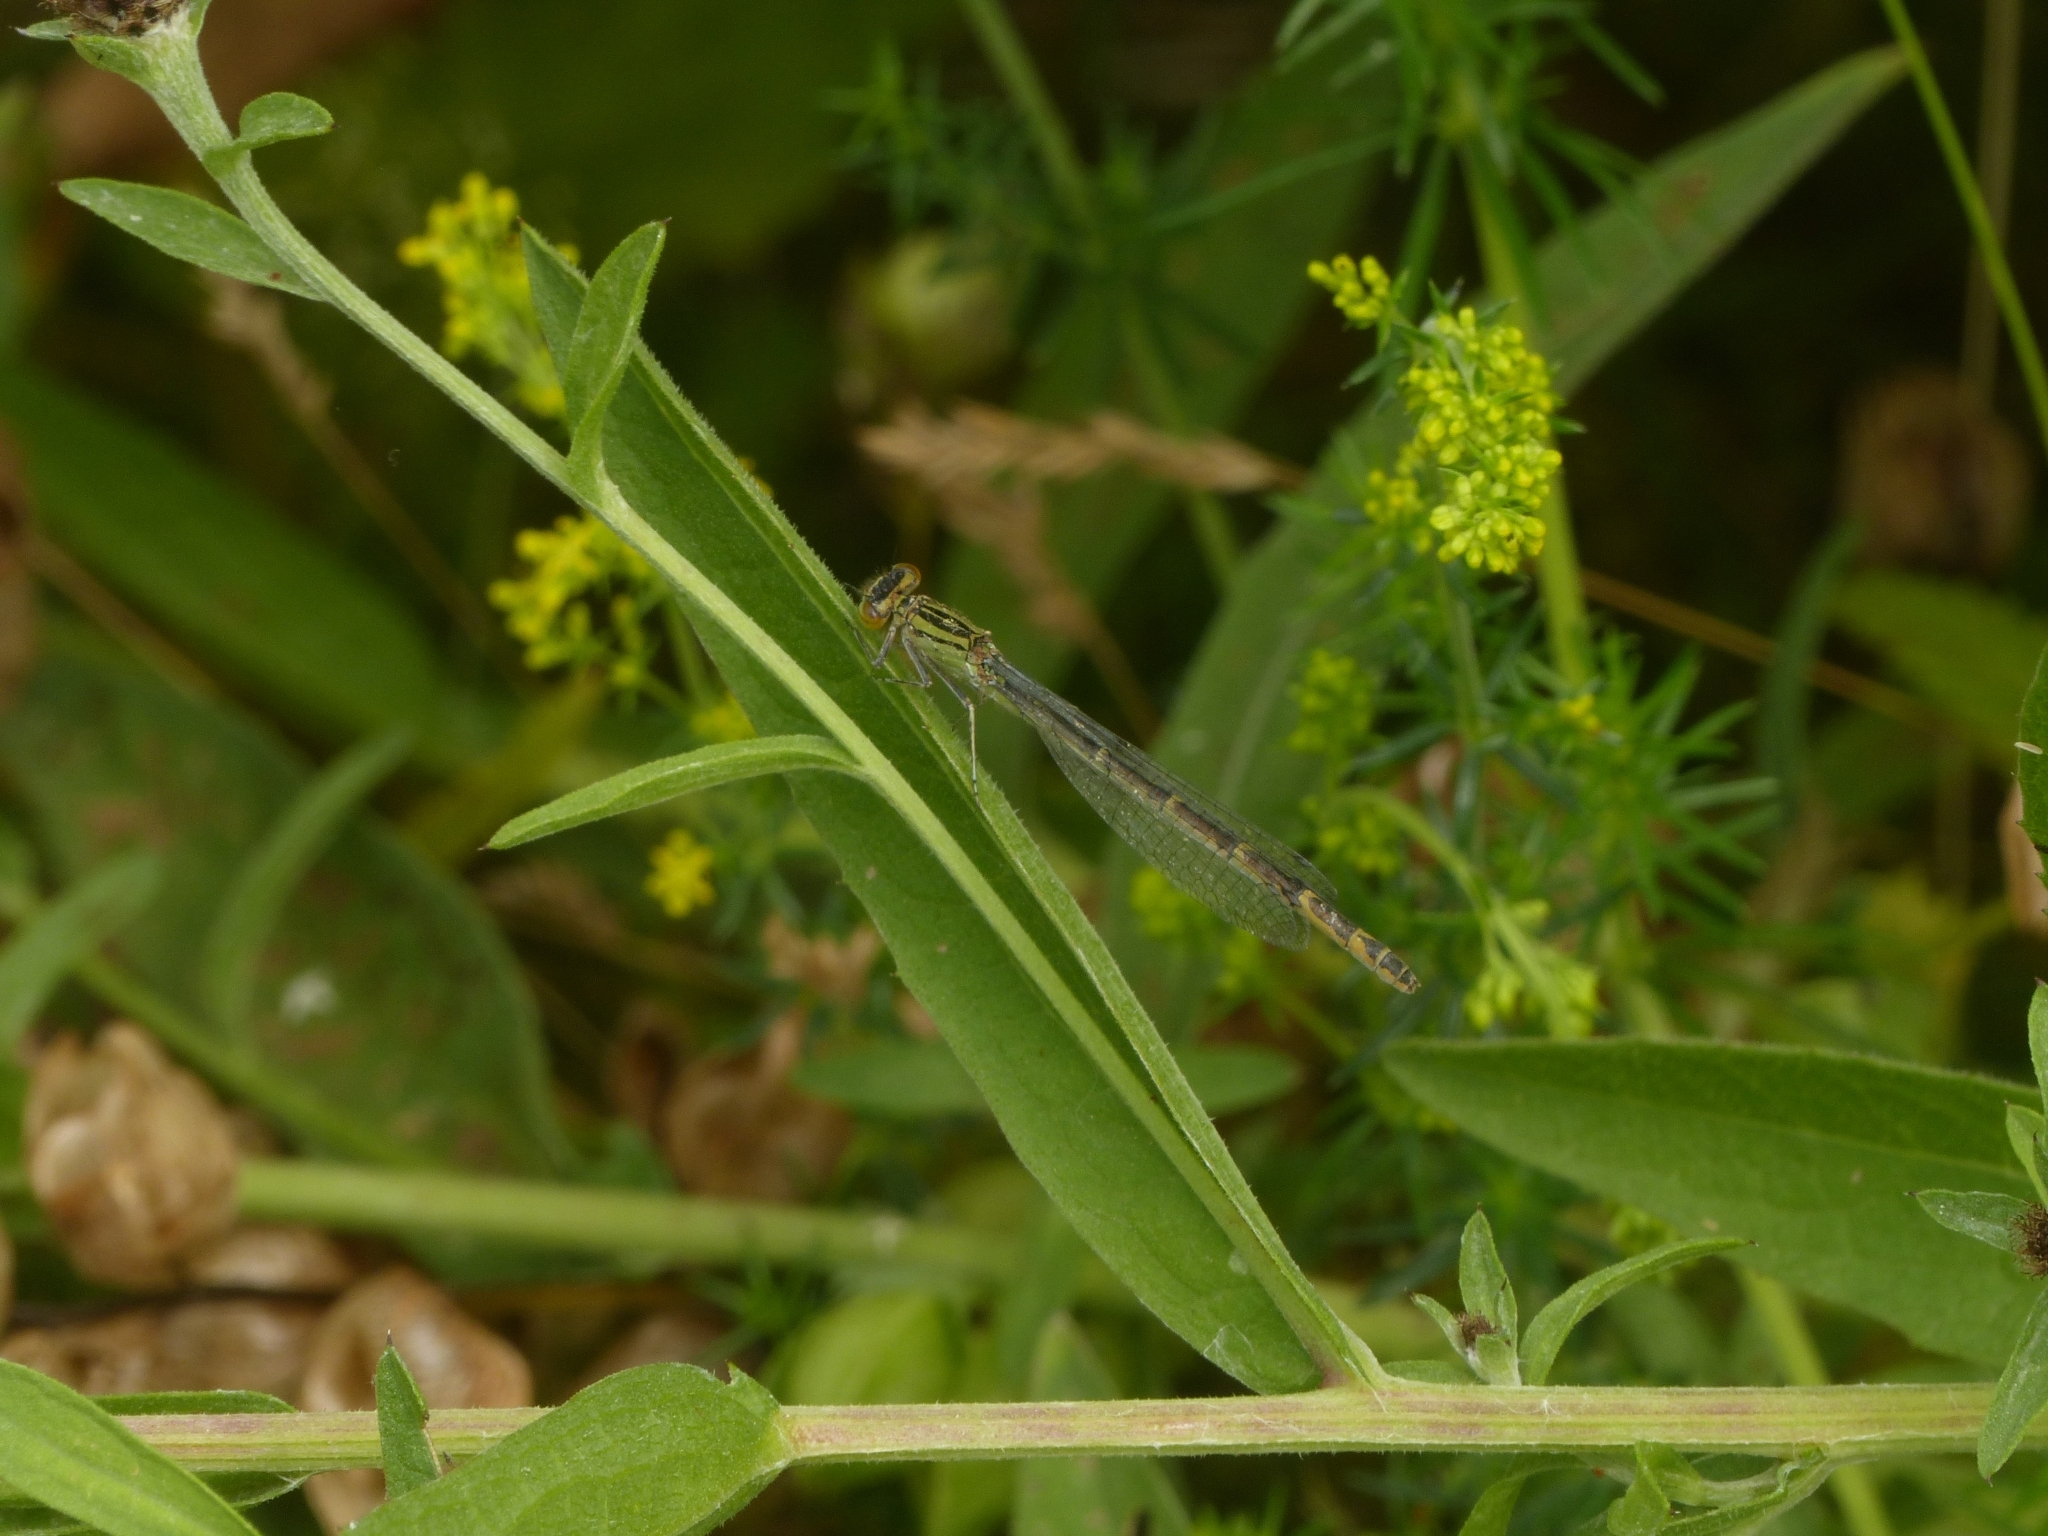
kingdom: Animalia
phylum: Arthropoda
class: Insecta
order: Odonata
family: Coenagrionidae
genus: Enallagma
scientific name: Enallagma cyathigerum
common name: Common blue damselfly
